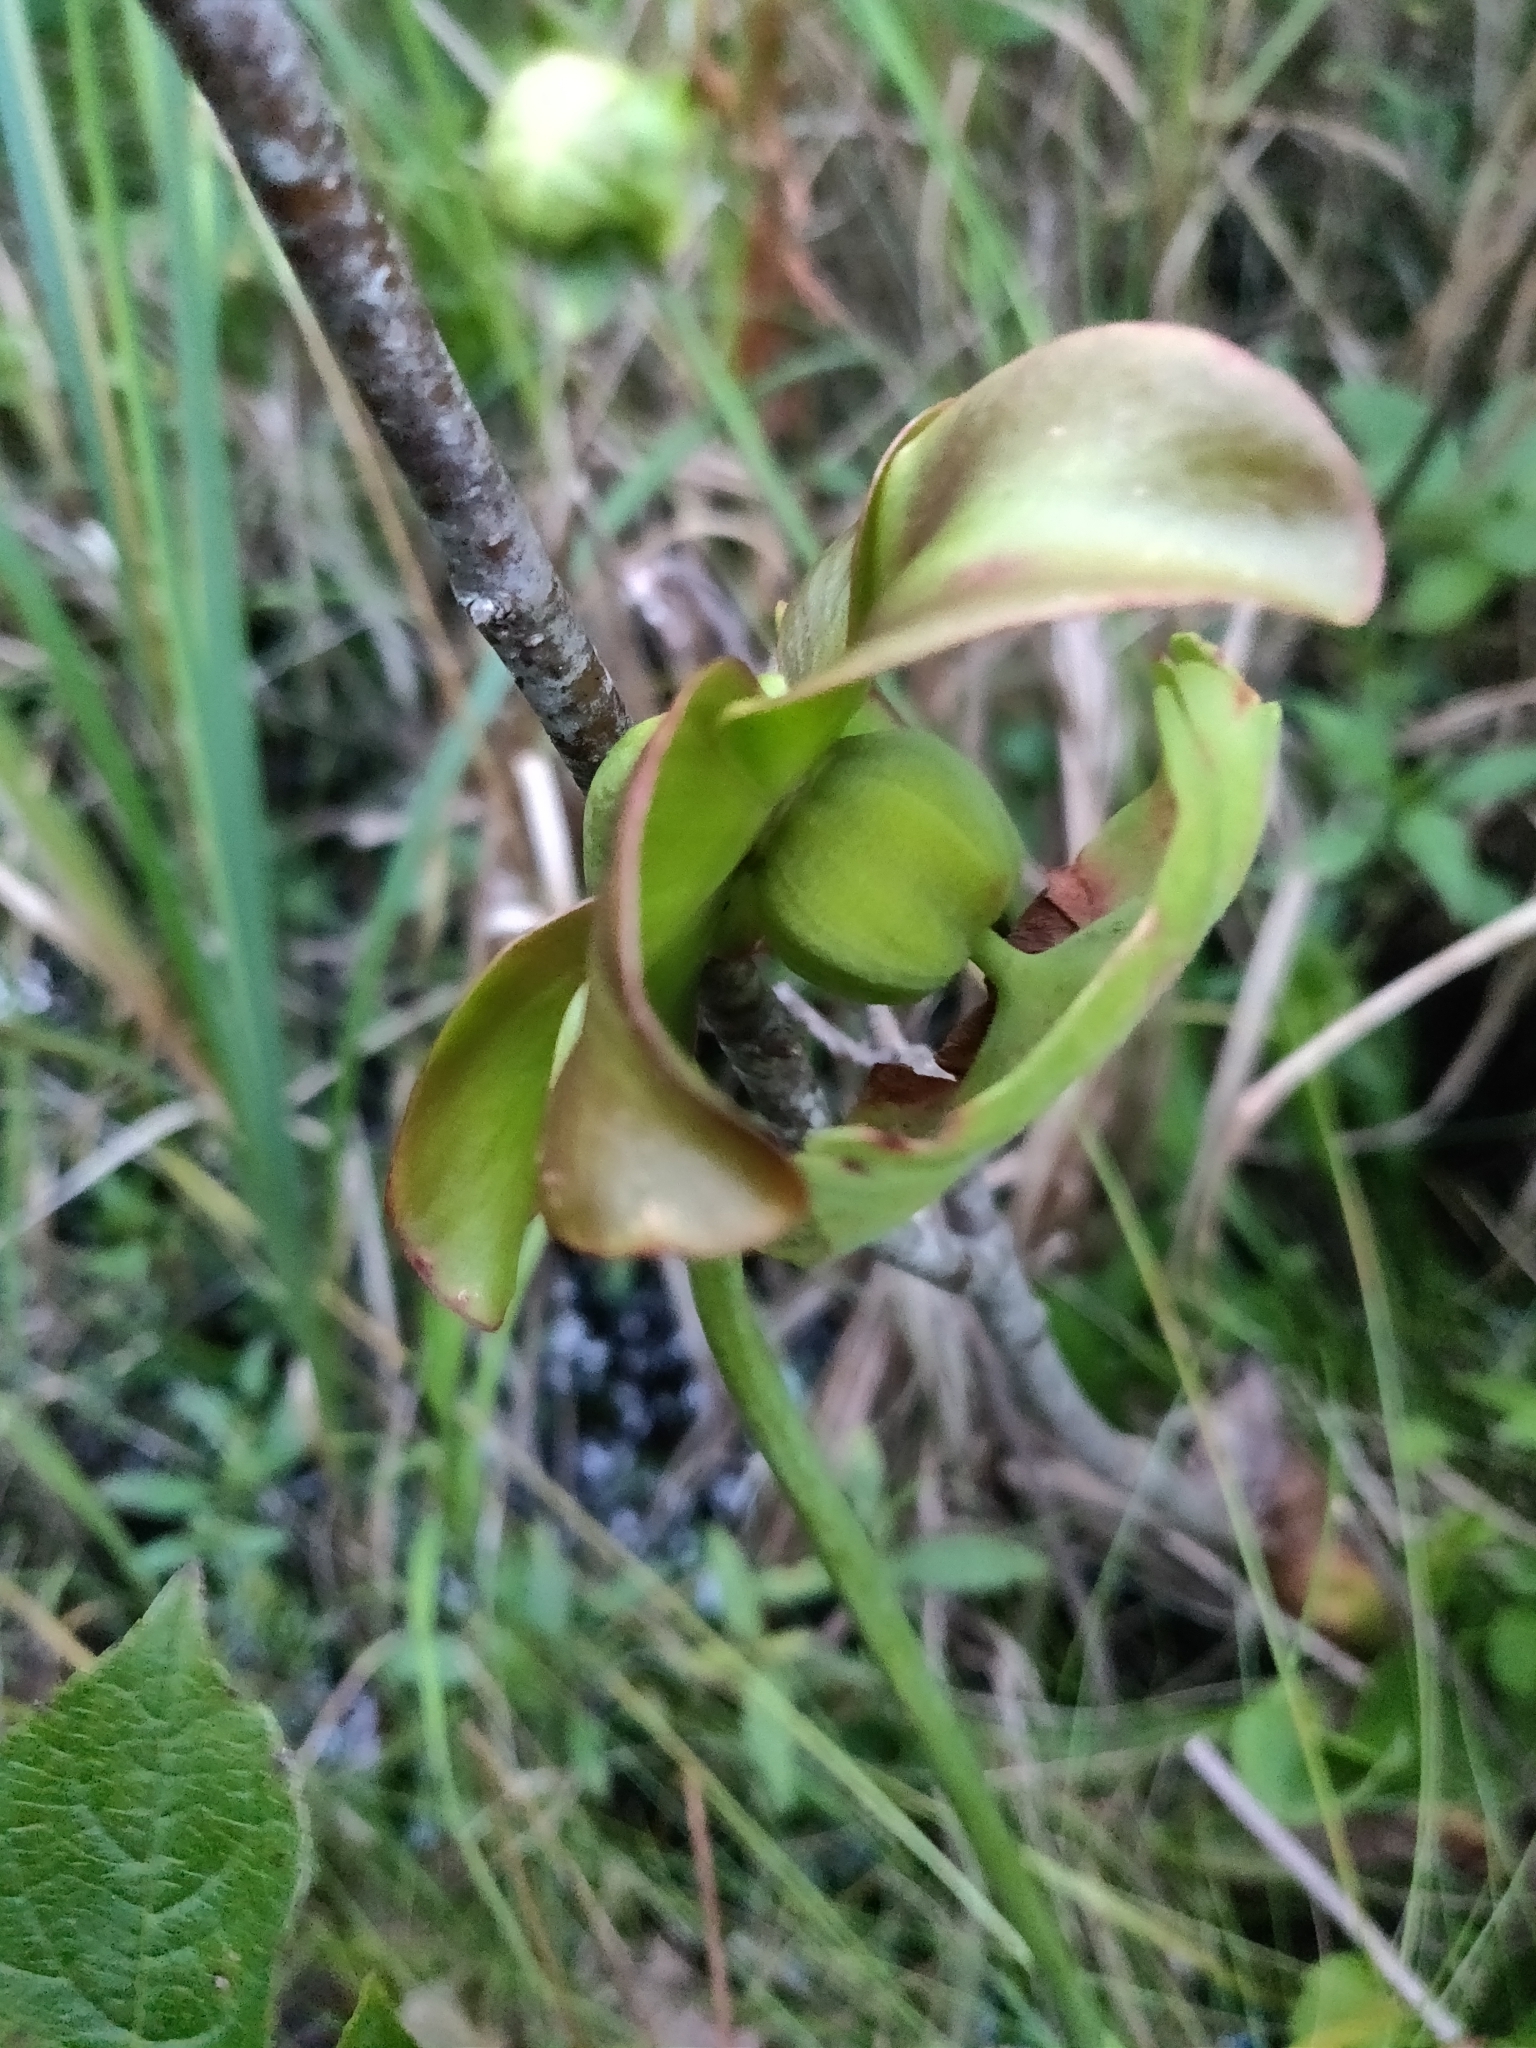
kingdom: Plantae
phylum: Tracheophyta
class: Magnoliopsida
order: Ericales
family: Sarraceniaceae
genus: Sarracenia
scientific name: Sarracenia purpurea
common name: Pitcherplant
